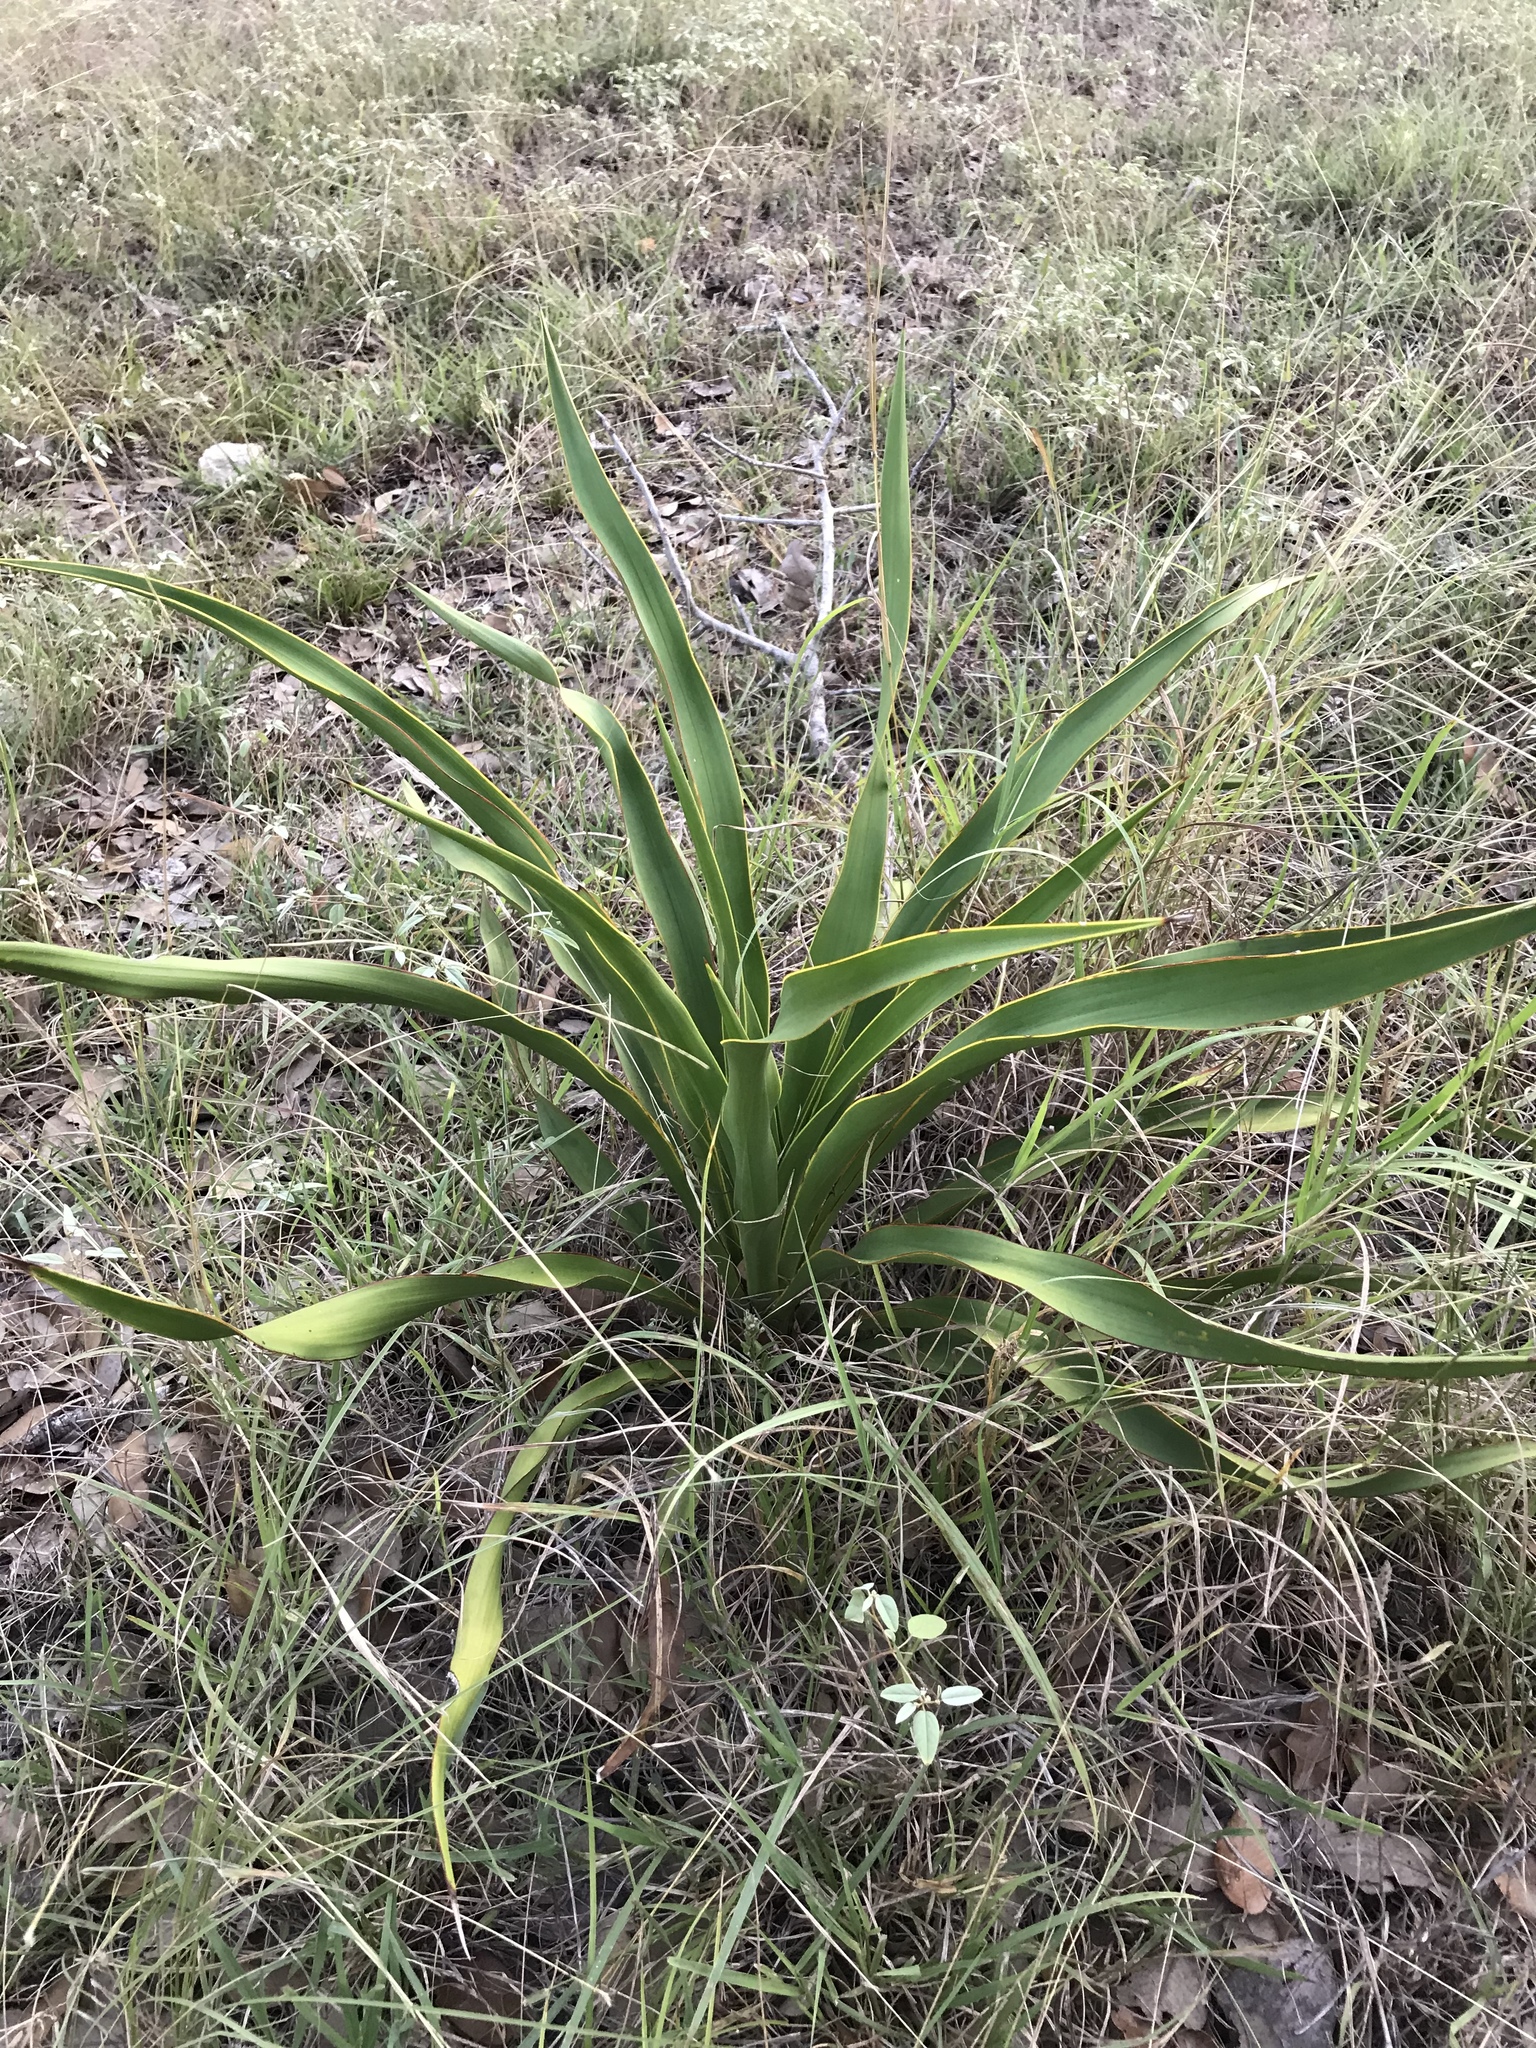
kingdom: Plantae
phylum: Tracheophyta
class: Liliopsida
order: Asparagales
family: Asparagaceae
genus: Yucca
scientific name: Yucca rupicola
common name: Twisted-leaf spanish-dagger
